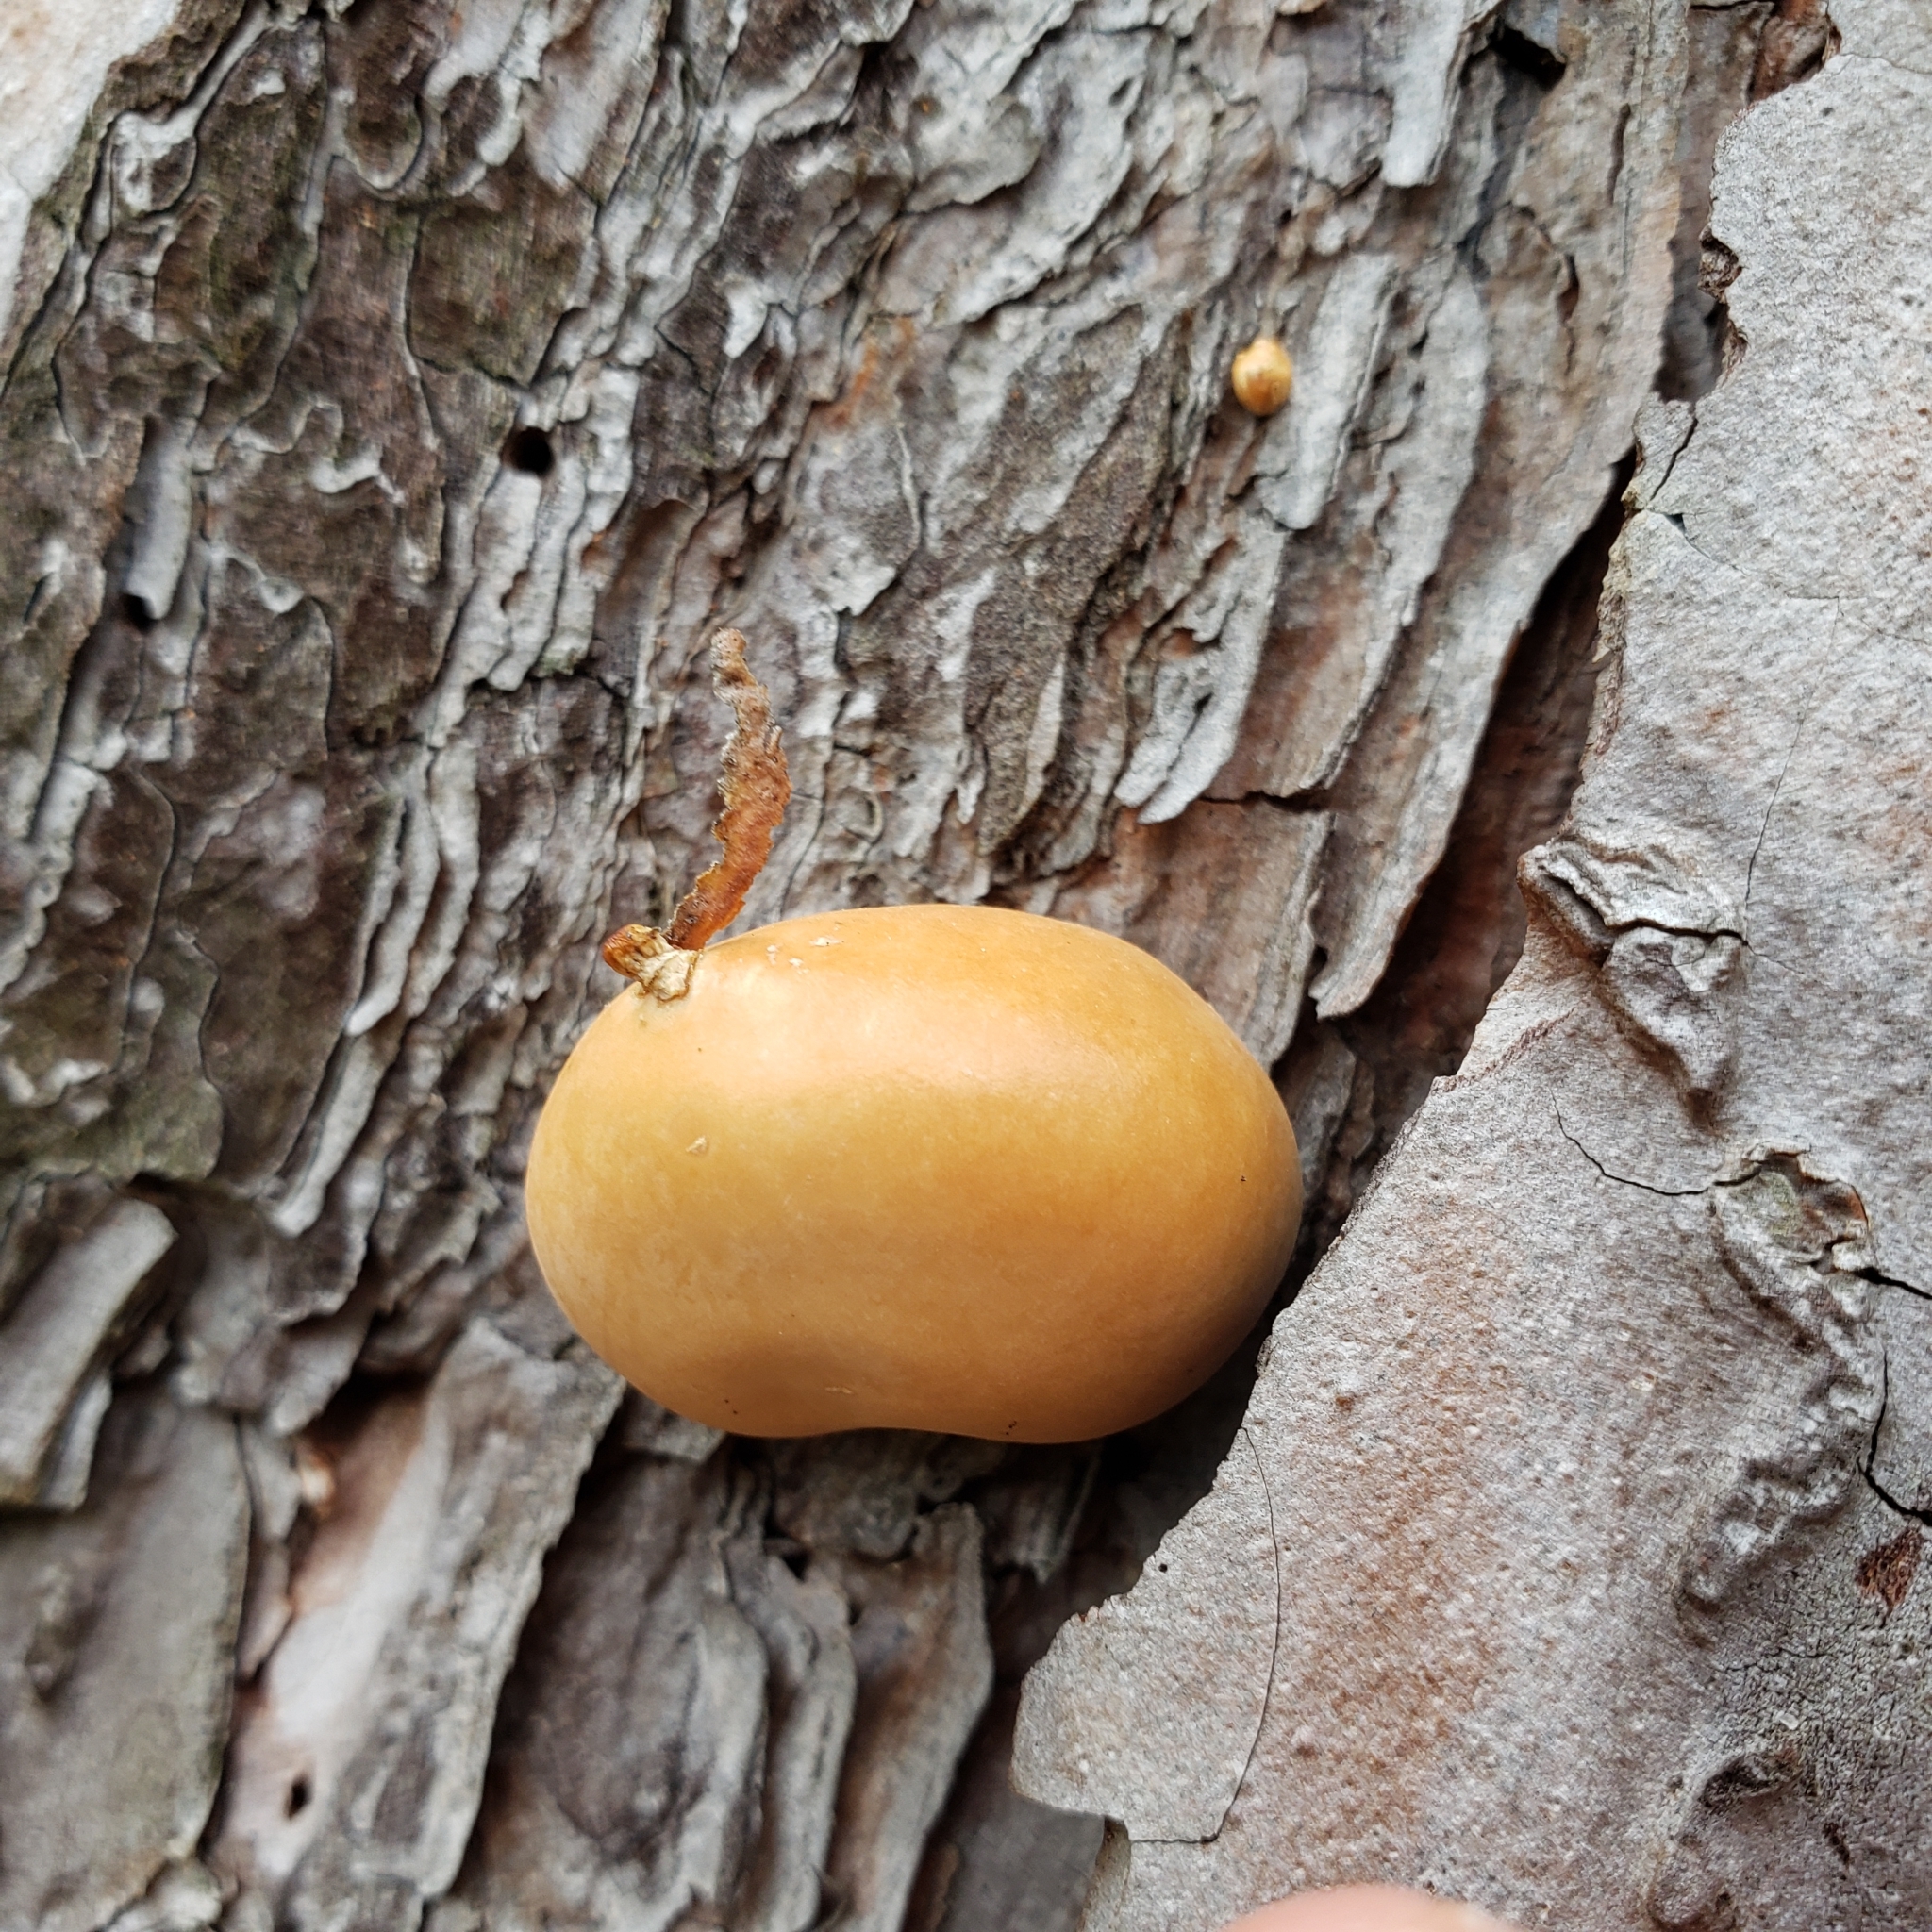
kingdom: Fungi
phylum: Basidiomycota
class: Agaricomycetes
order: Polyporales
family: Polyporaceae
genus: Cryptoporus
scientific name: Cryptoporus volvatus
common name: Veiled polypore
